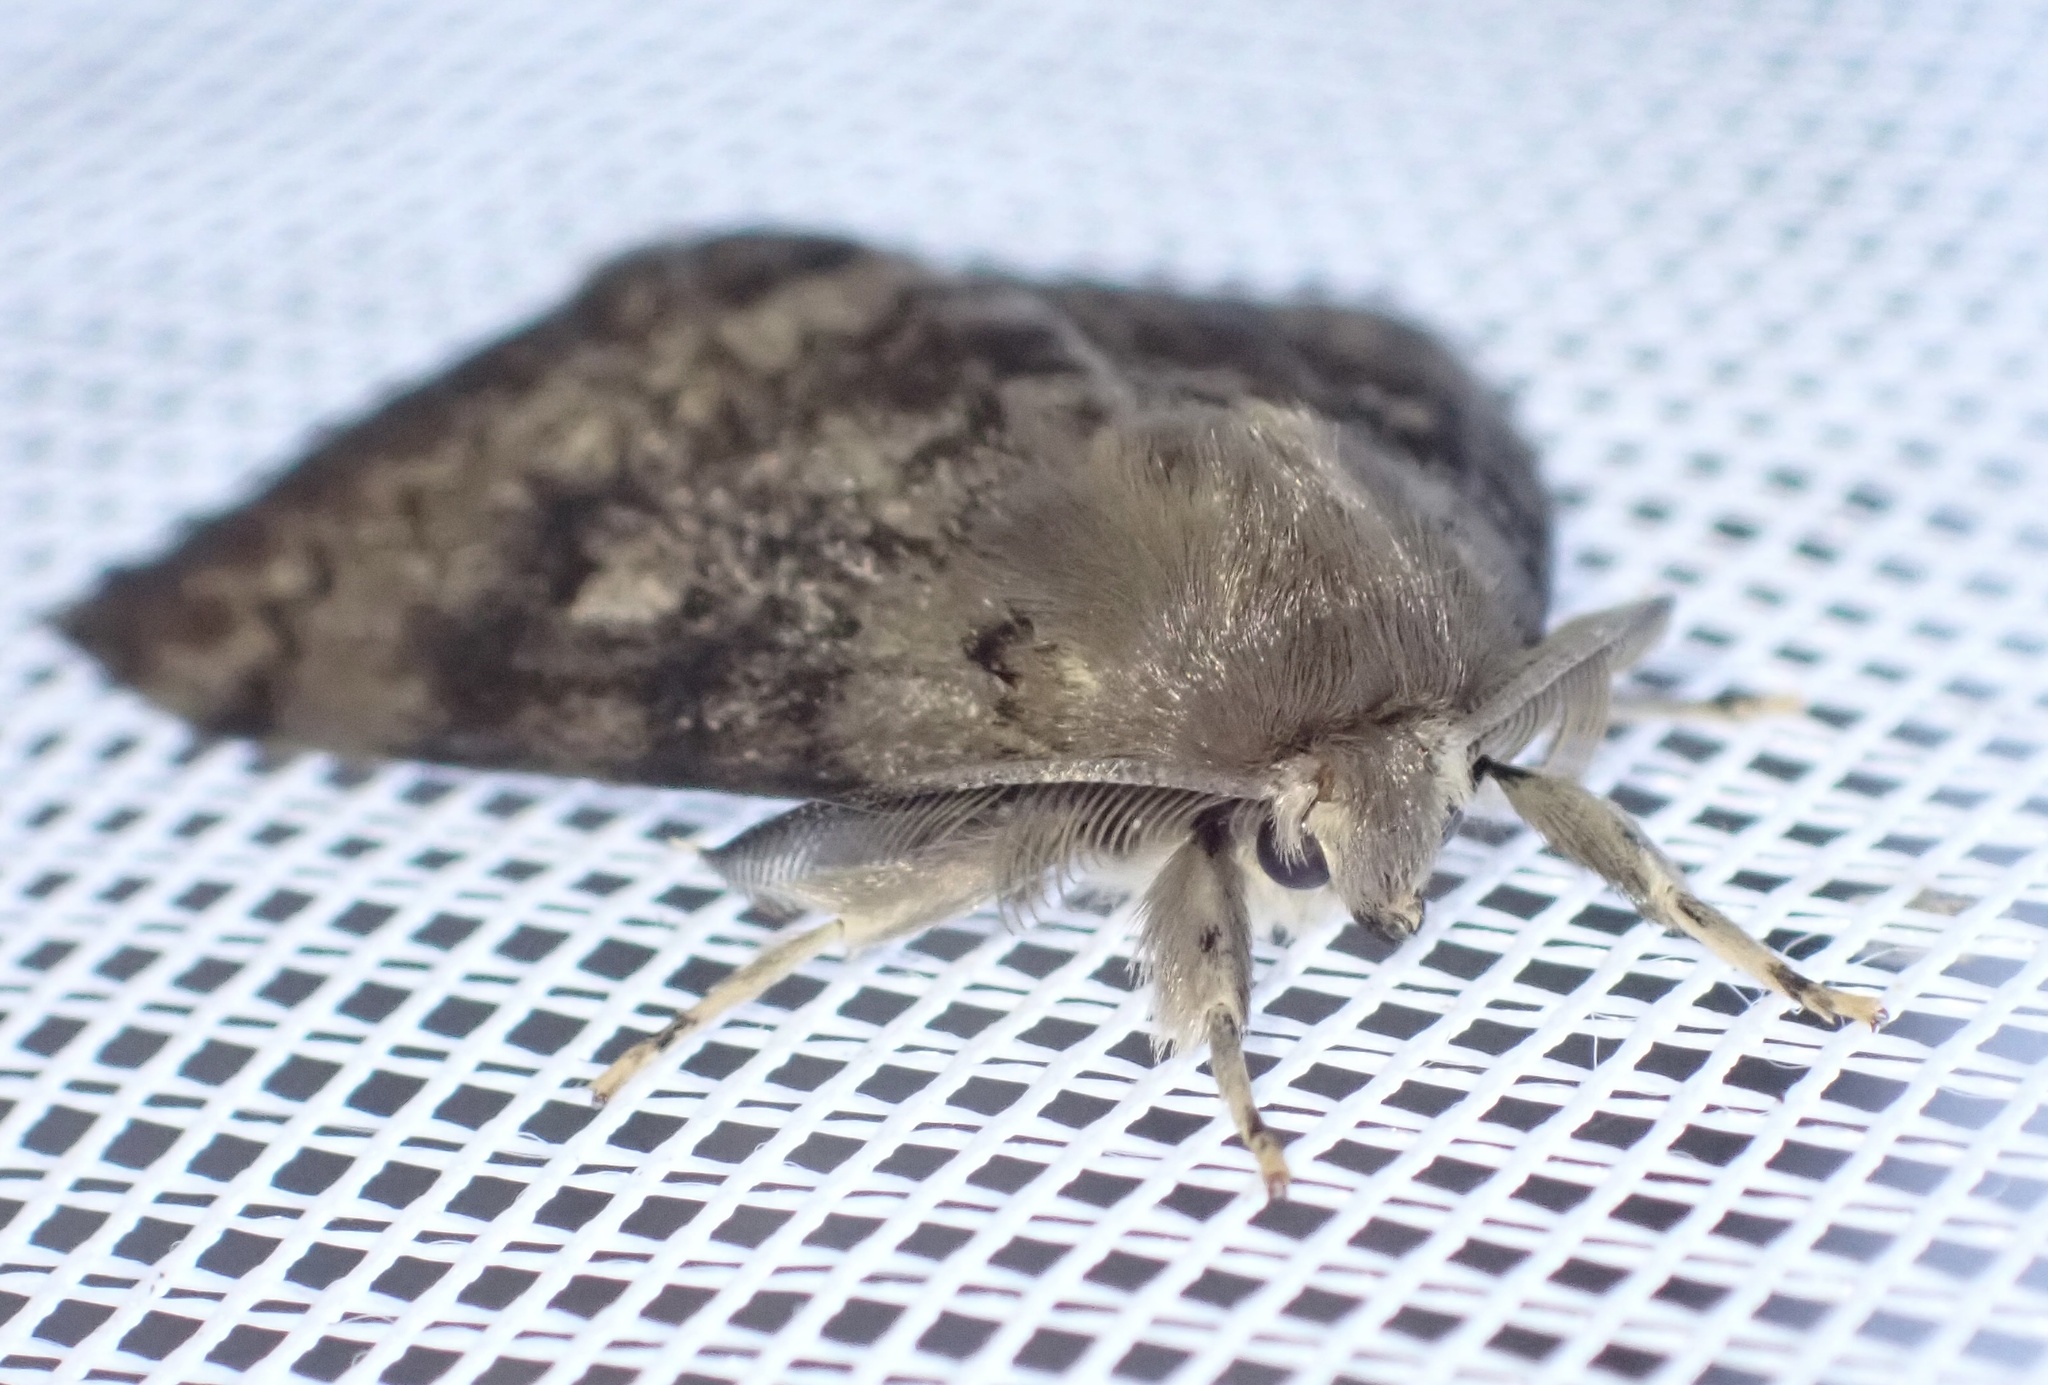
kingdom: Animalia
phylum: Arthropoda
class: Insecta
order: Lepidoptera
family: Erebidae
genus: Lymantria
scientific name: Lymantria dispar
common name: Gypsy moth
